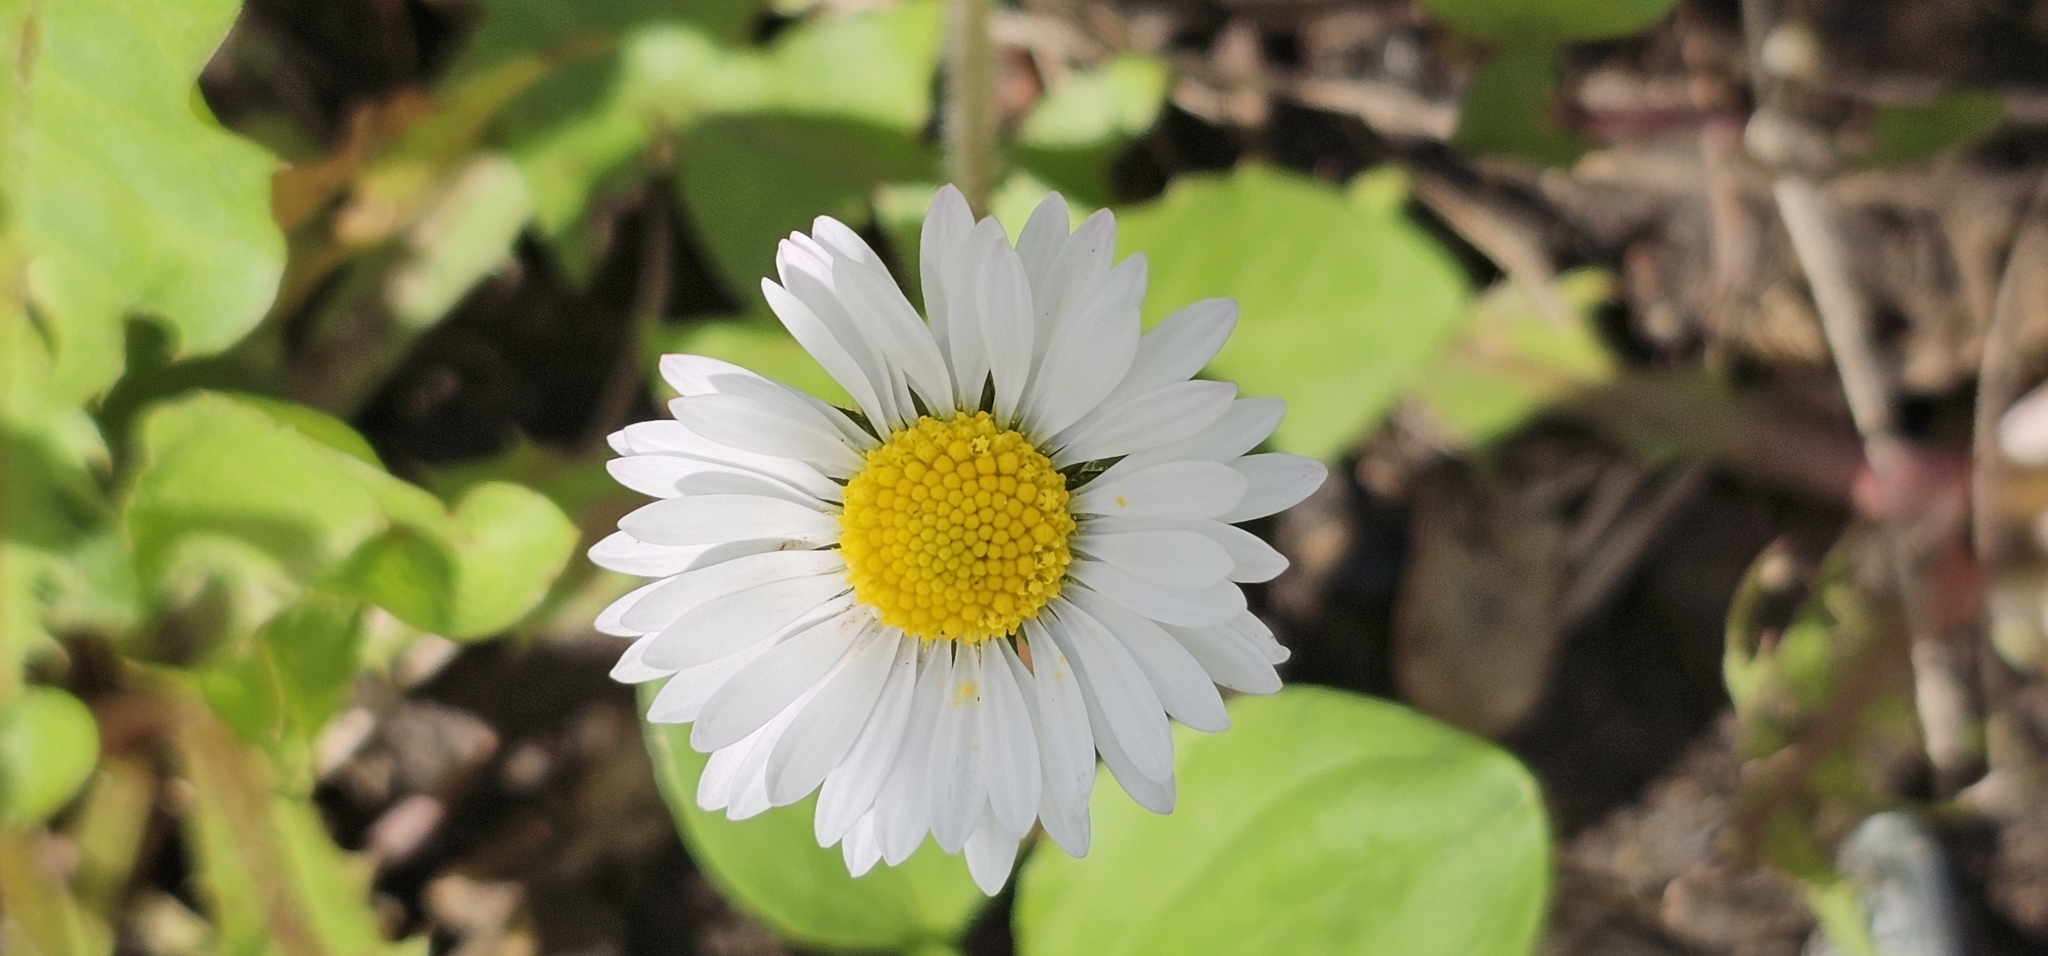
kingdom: Plantae
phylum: Tracheophyta
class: Magnoliopsida
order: Asterales
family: Asteraceae
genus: Bellis
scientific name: Bellis perennis
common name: Lawndaisy
